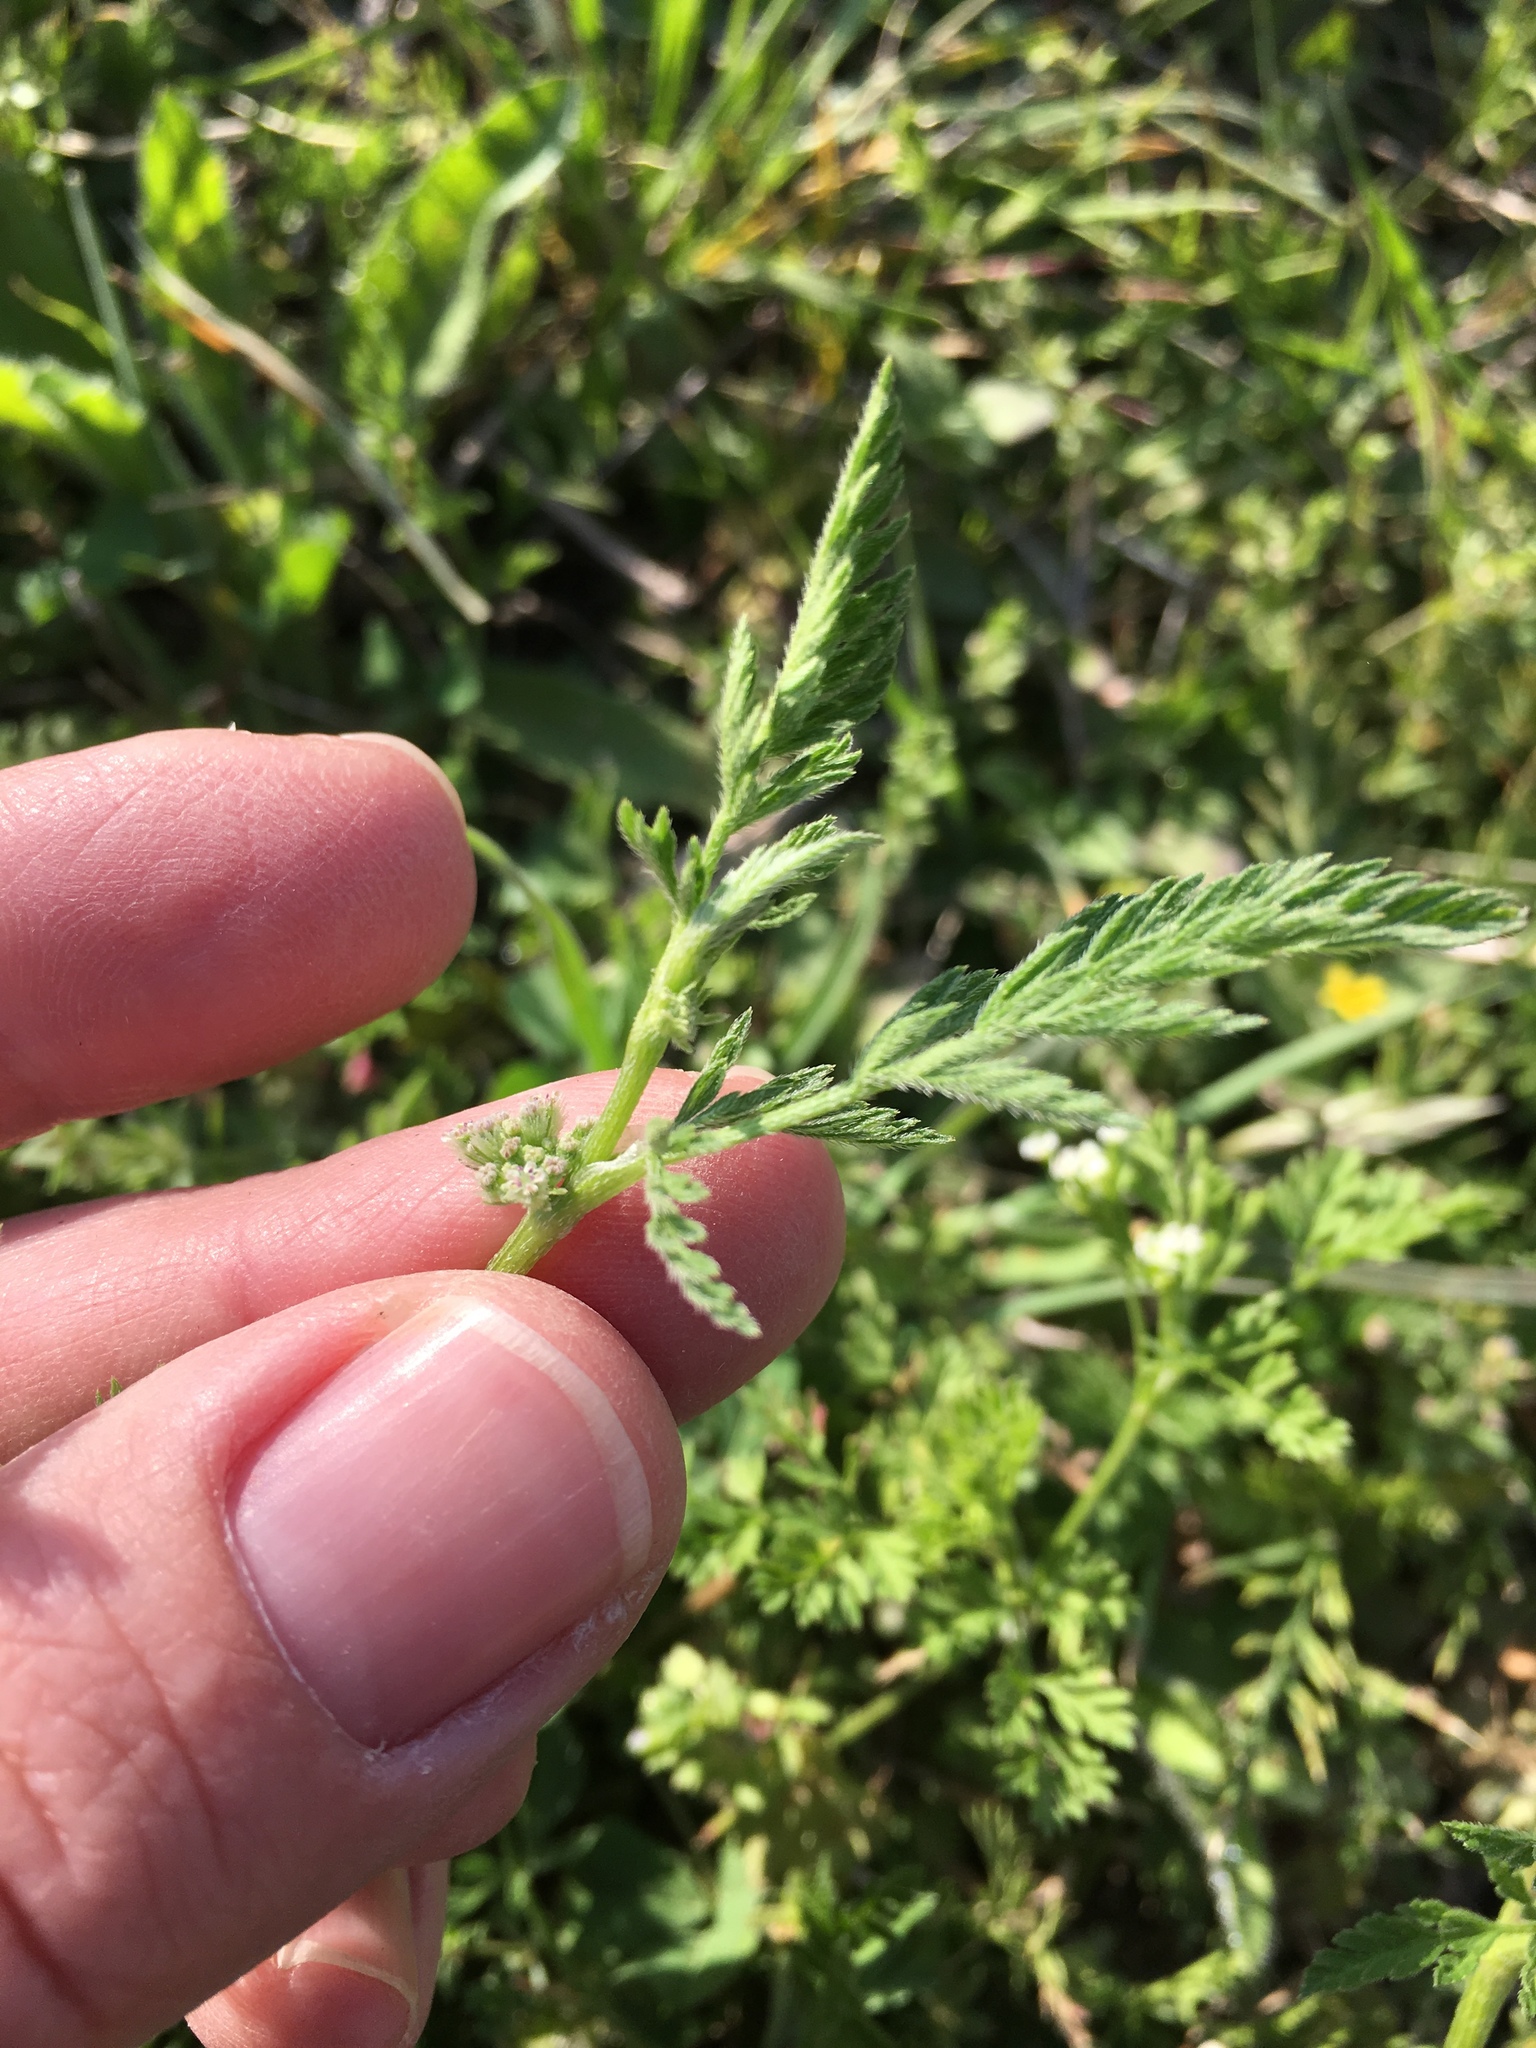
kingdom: Plantae
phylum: Tracheophyta
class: Magnoliopsida
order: Apiales
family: Apiaceae
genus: Torilis
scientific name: Torilis nodosa
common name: Knotted hedge-parsley
